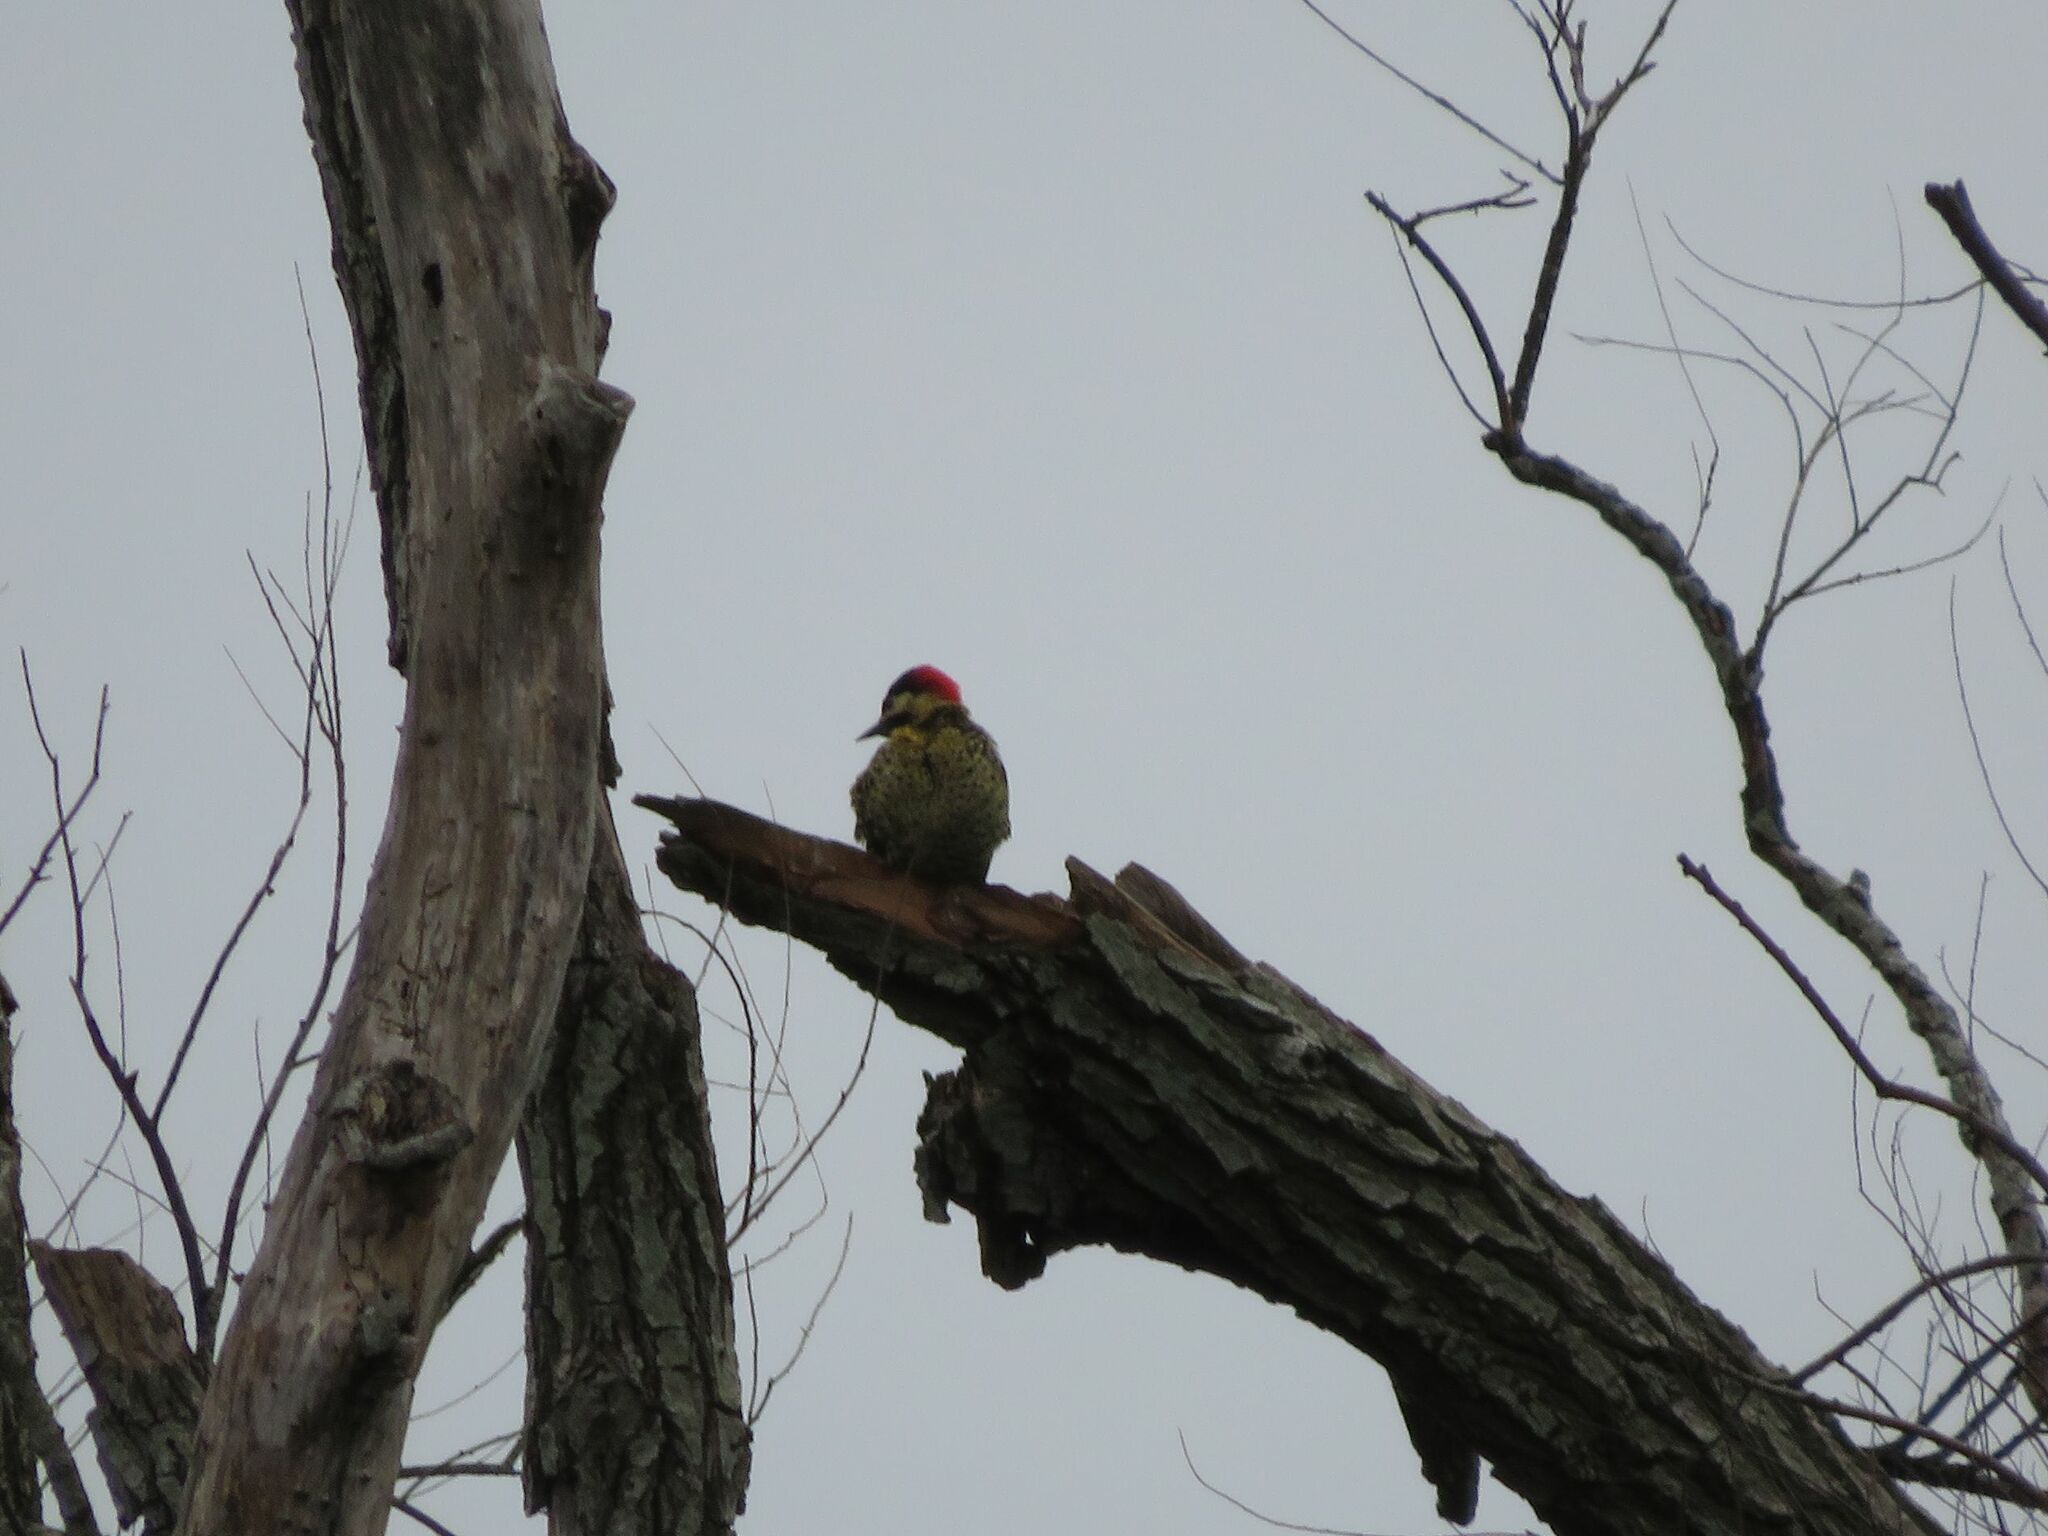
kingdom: Animalia
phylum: Chordata
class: Aves
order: Piciformes
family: Picidae
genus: Colaptes
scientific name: Colaptes melanochloros
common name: Green-barred woodpecker
